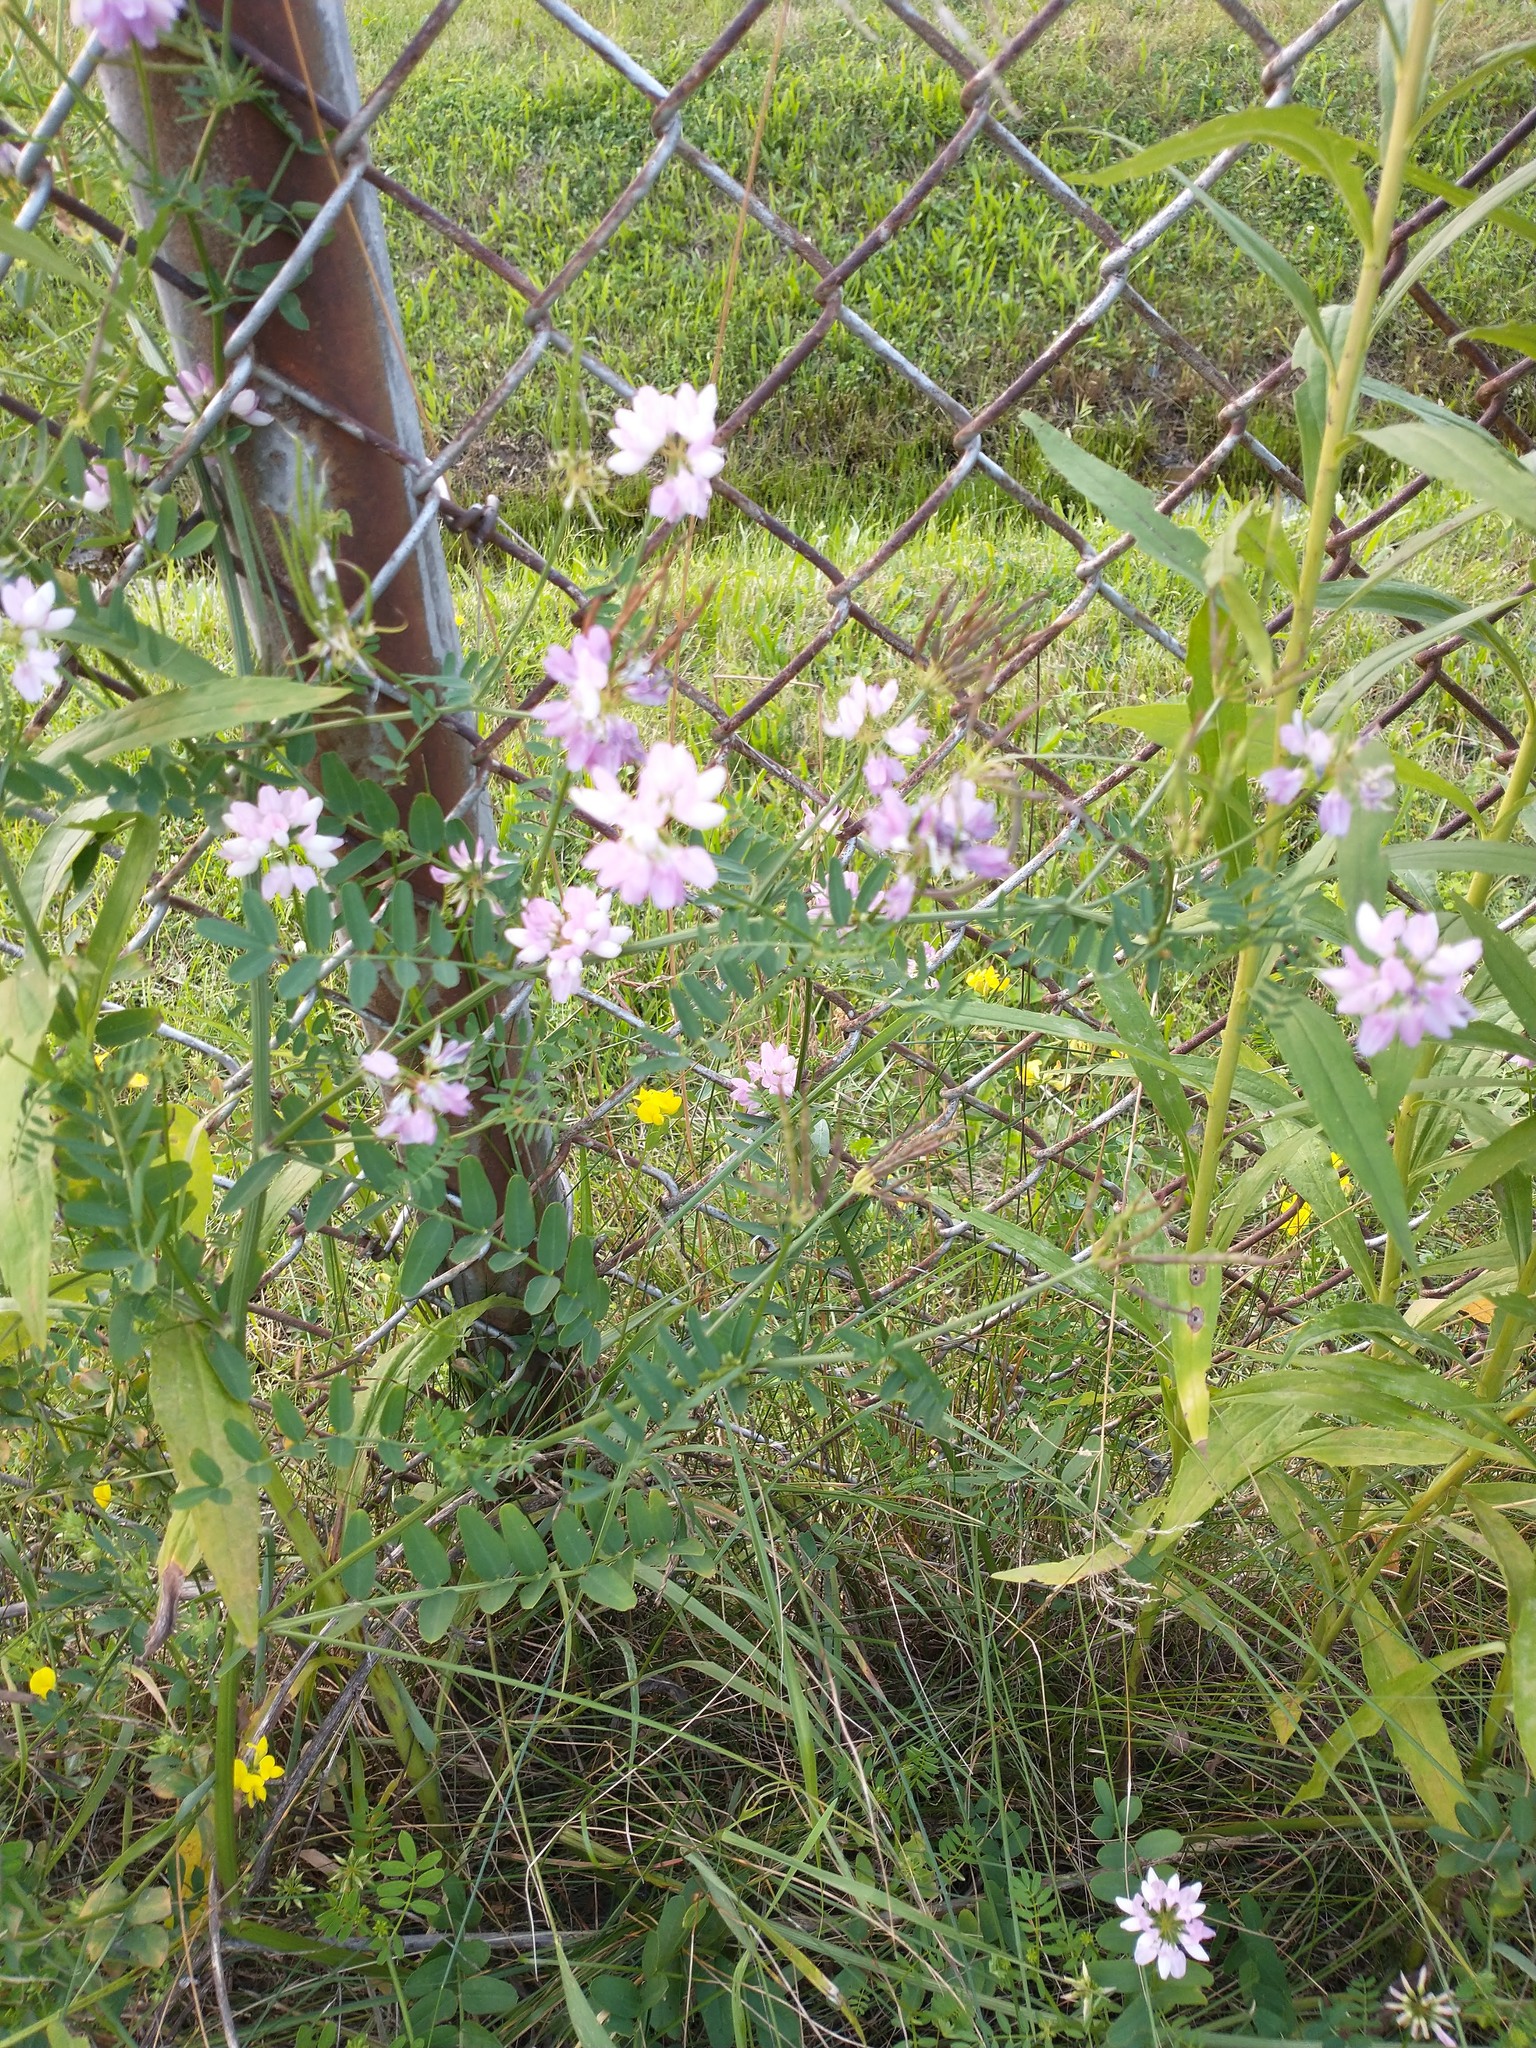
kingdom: Plantae
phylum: Tracheophyta
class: Magnoliopsida
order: Fabales
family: Fabaceae
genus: Coronilla
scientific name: Coronilla varia
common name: Crownvetch
